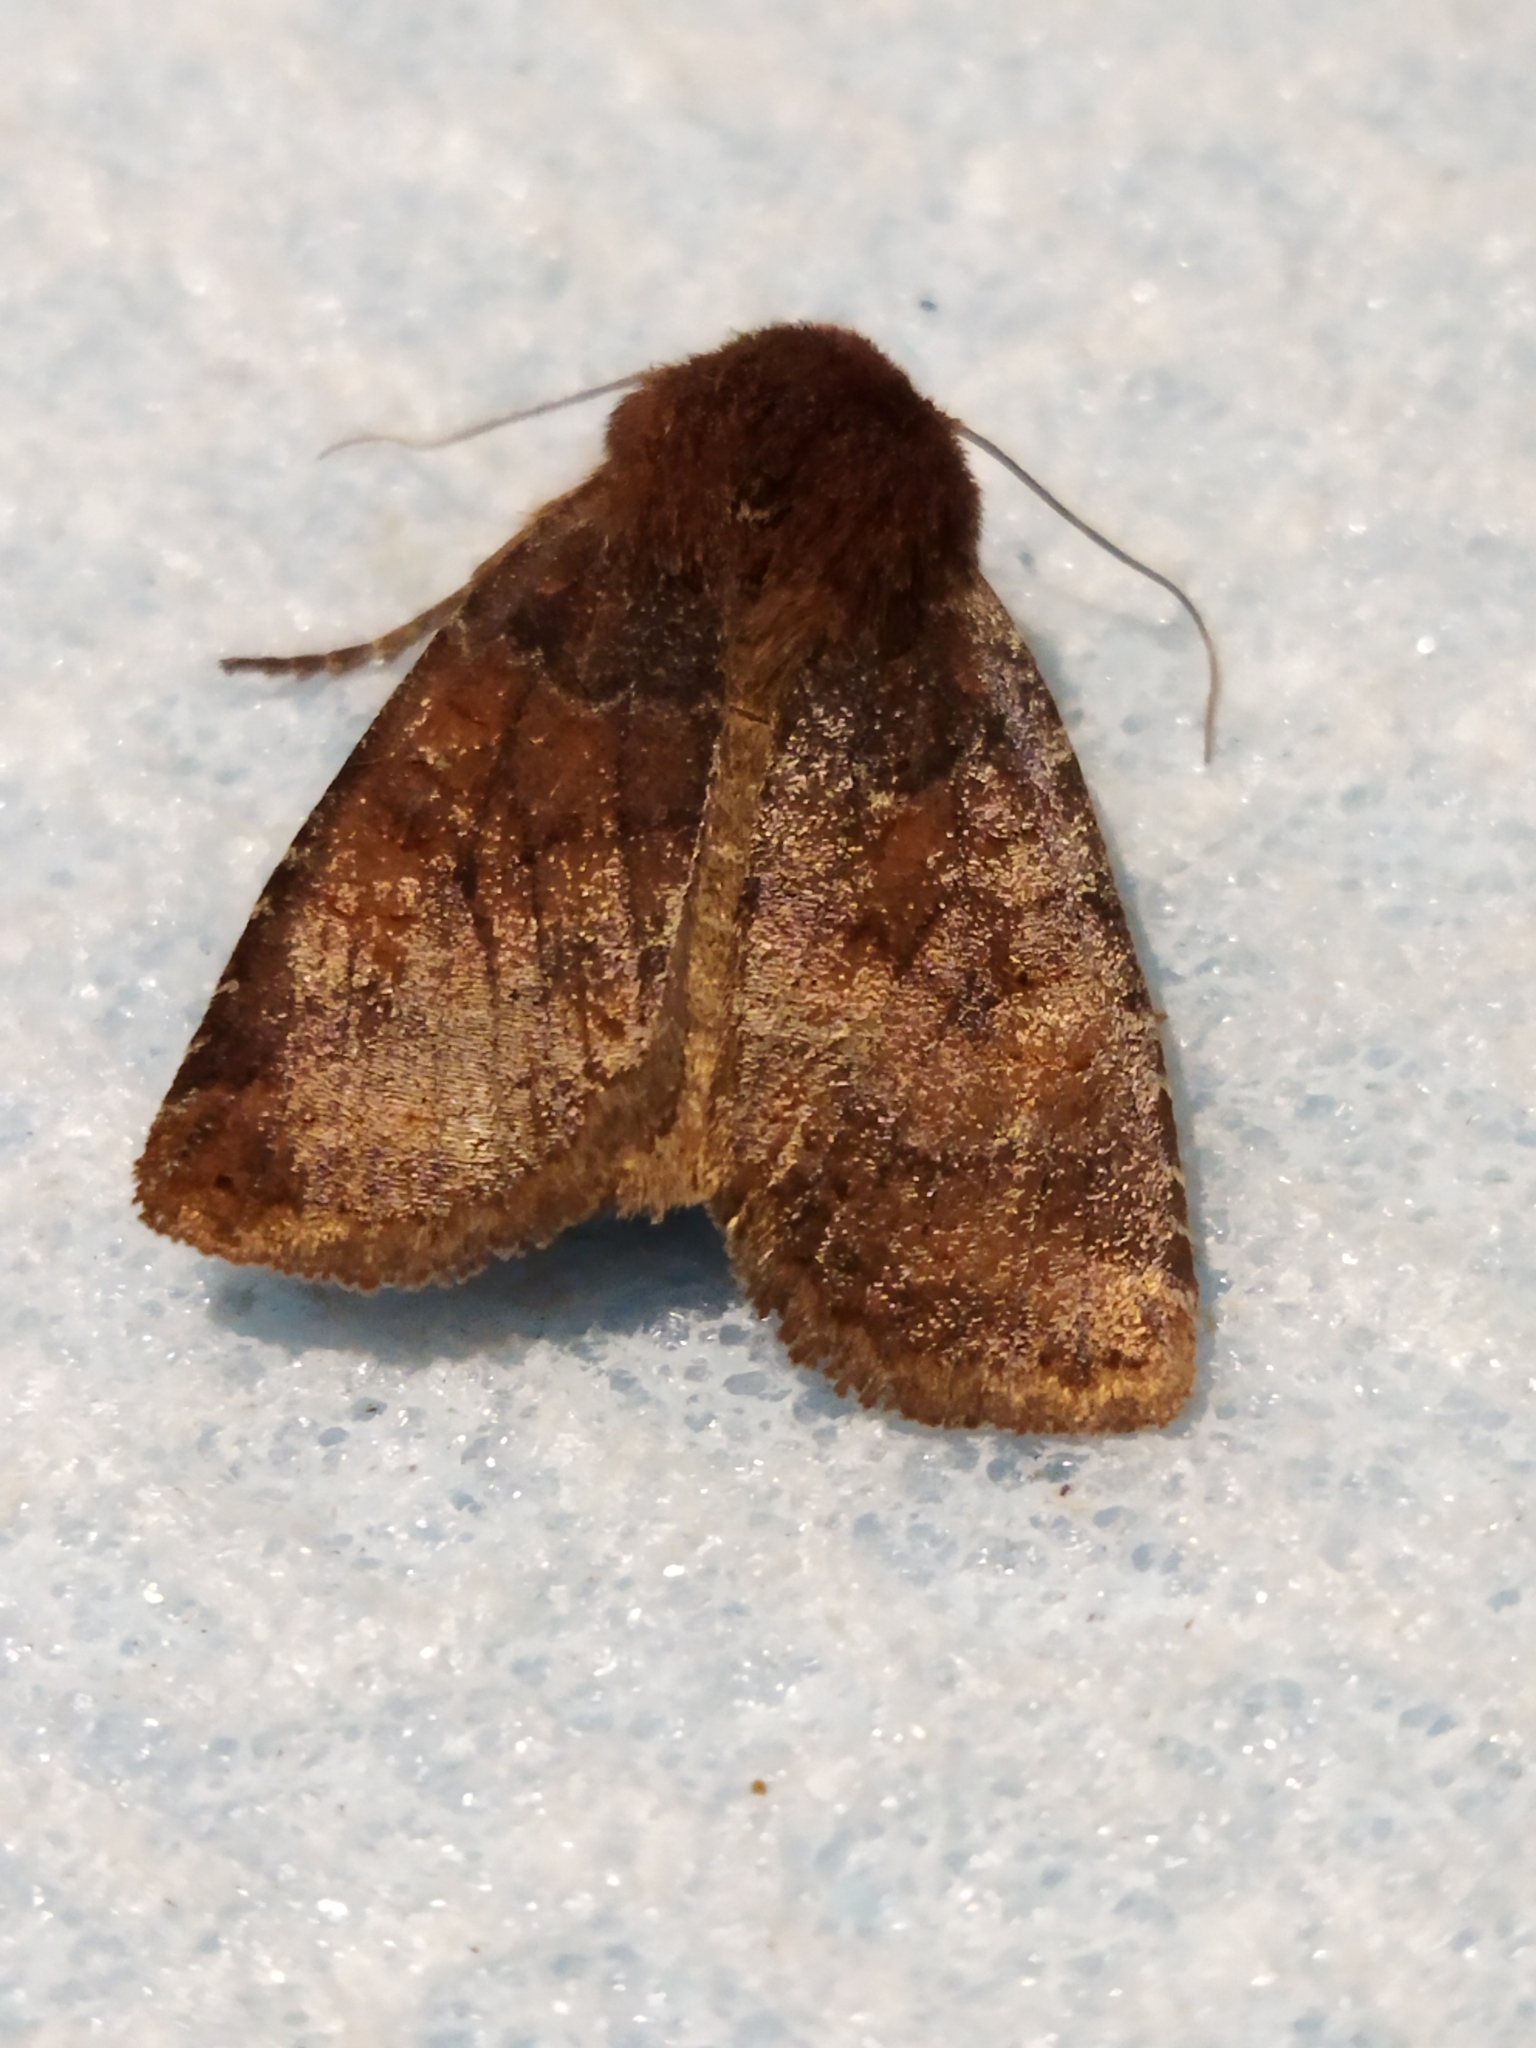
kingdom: Animalia
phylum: Arthropoda
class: Insecta
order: Lepidoptera
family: Noctuidae
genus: Conistra
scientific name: Conistra vaccinii
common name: Chestnut
